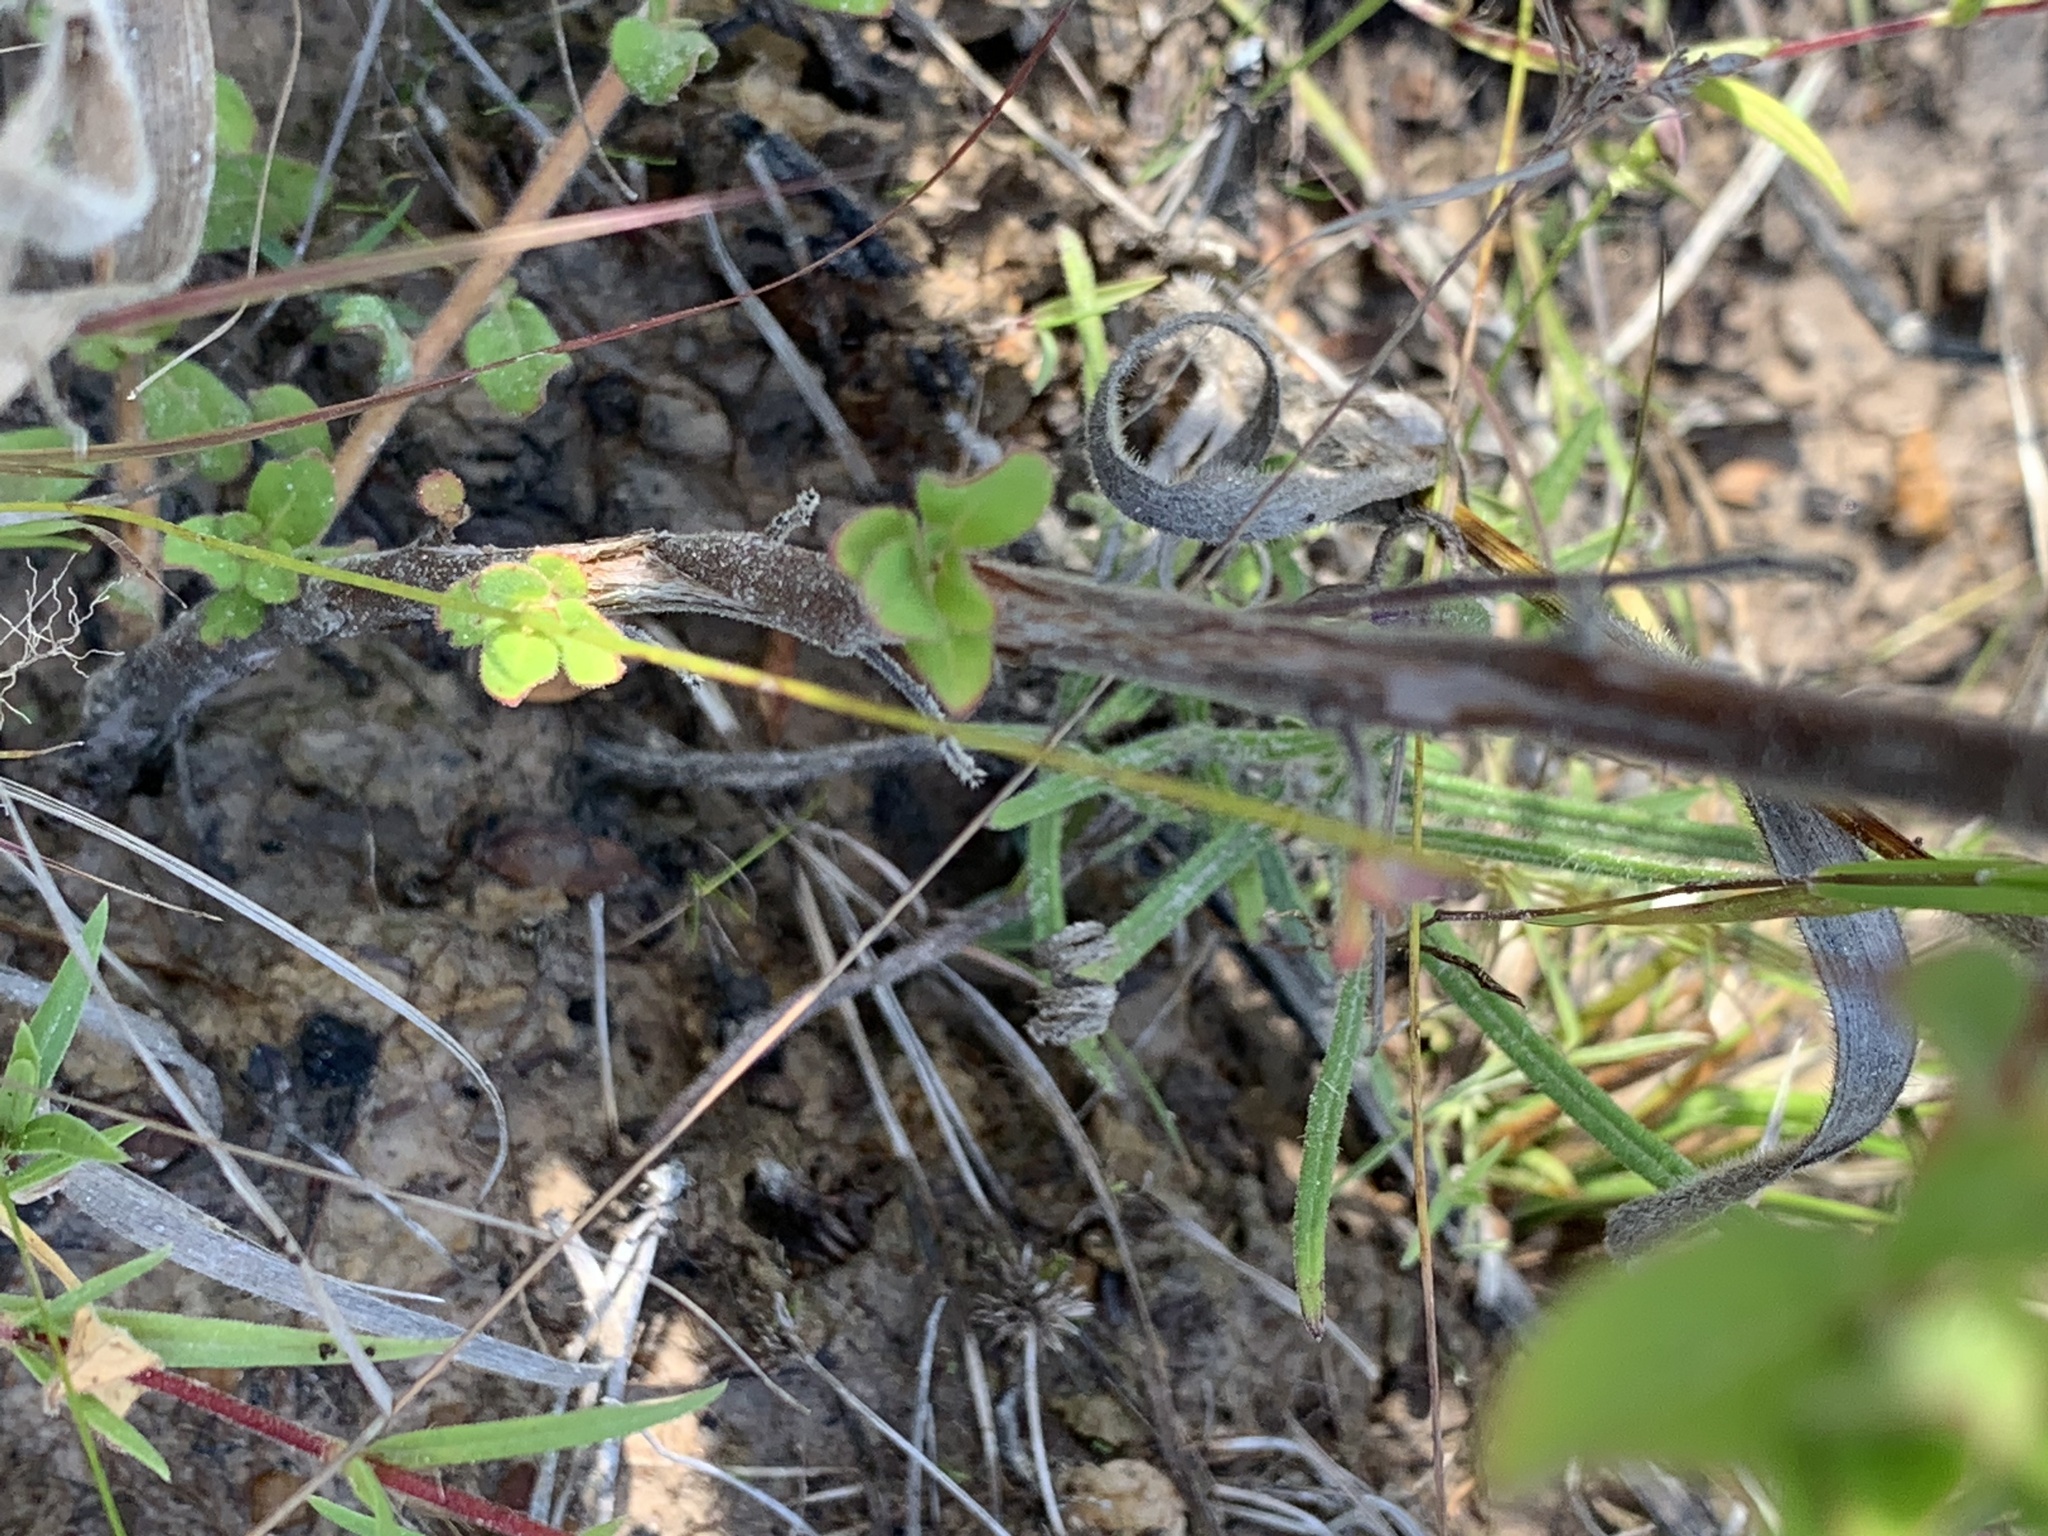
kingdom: Plantae
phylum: Tracheophyta
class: Magnoliopsida
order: Myrtales
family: Onagraceae
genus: Ludwigia
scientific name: Ludwigia pilosa
